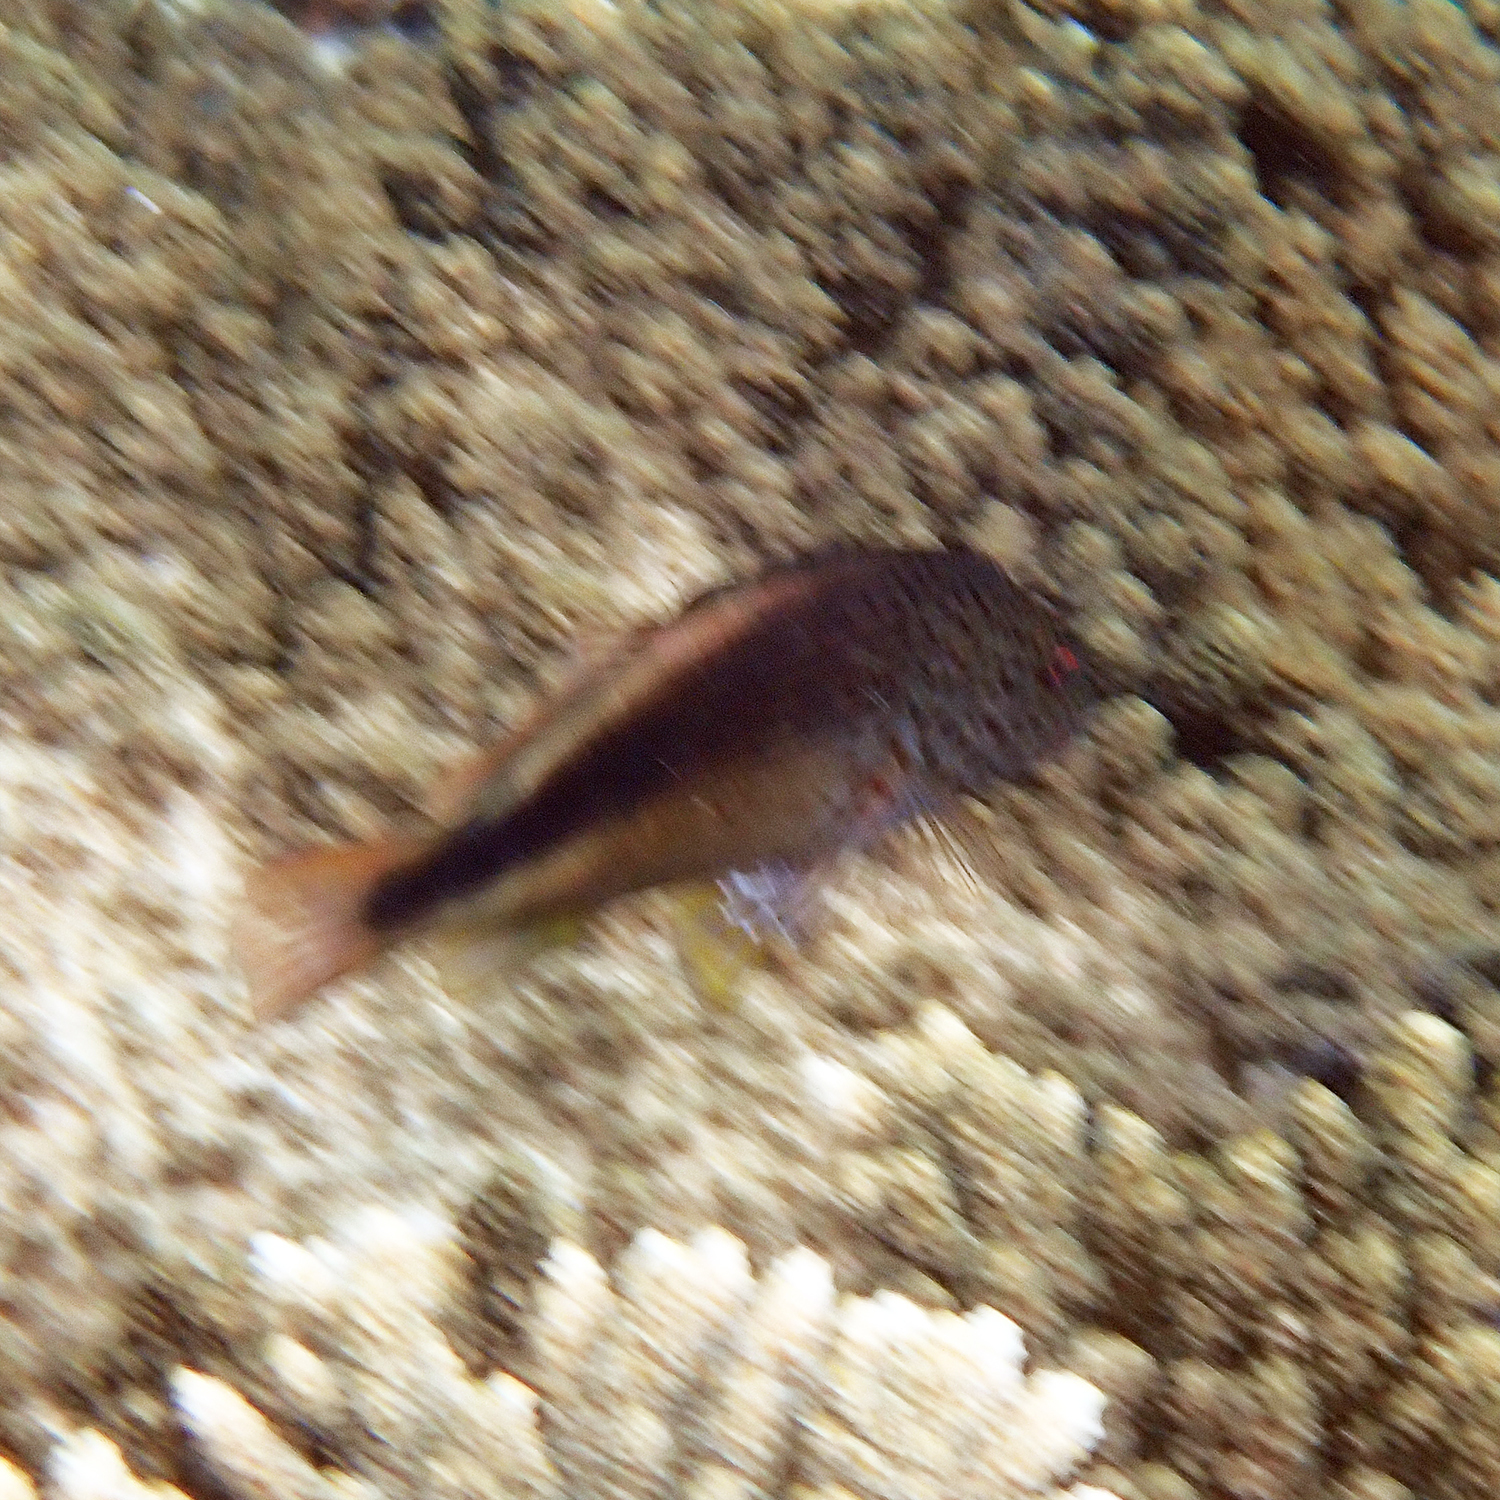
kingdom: Animalia
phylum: Chordata
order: Perciformes
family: Cirrhitidae
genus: Paracirrhites
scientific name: Paracirrhites forsteri
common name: Freckled hawkfish
